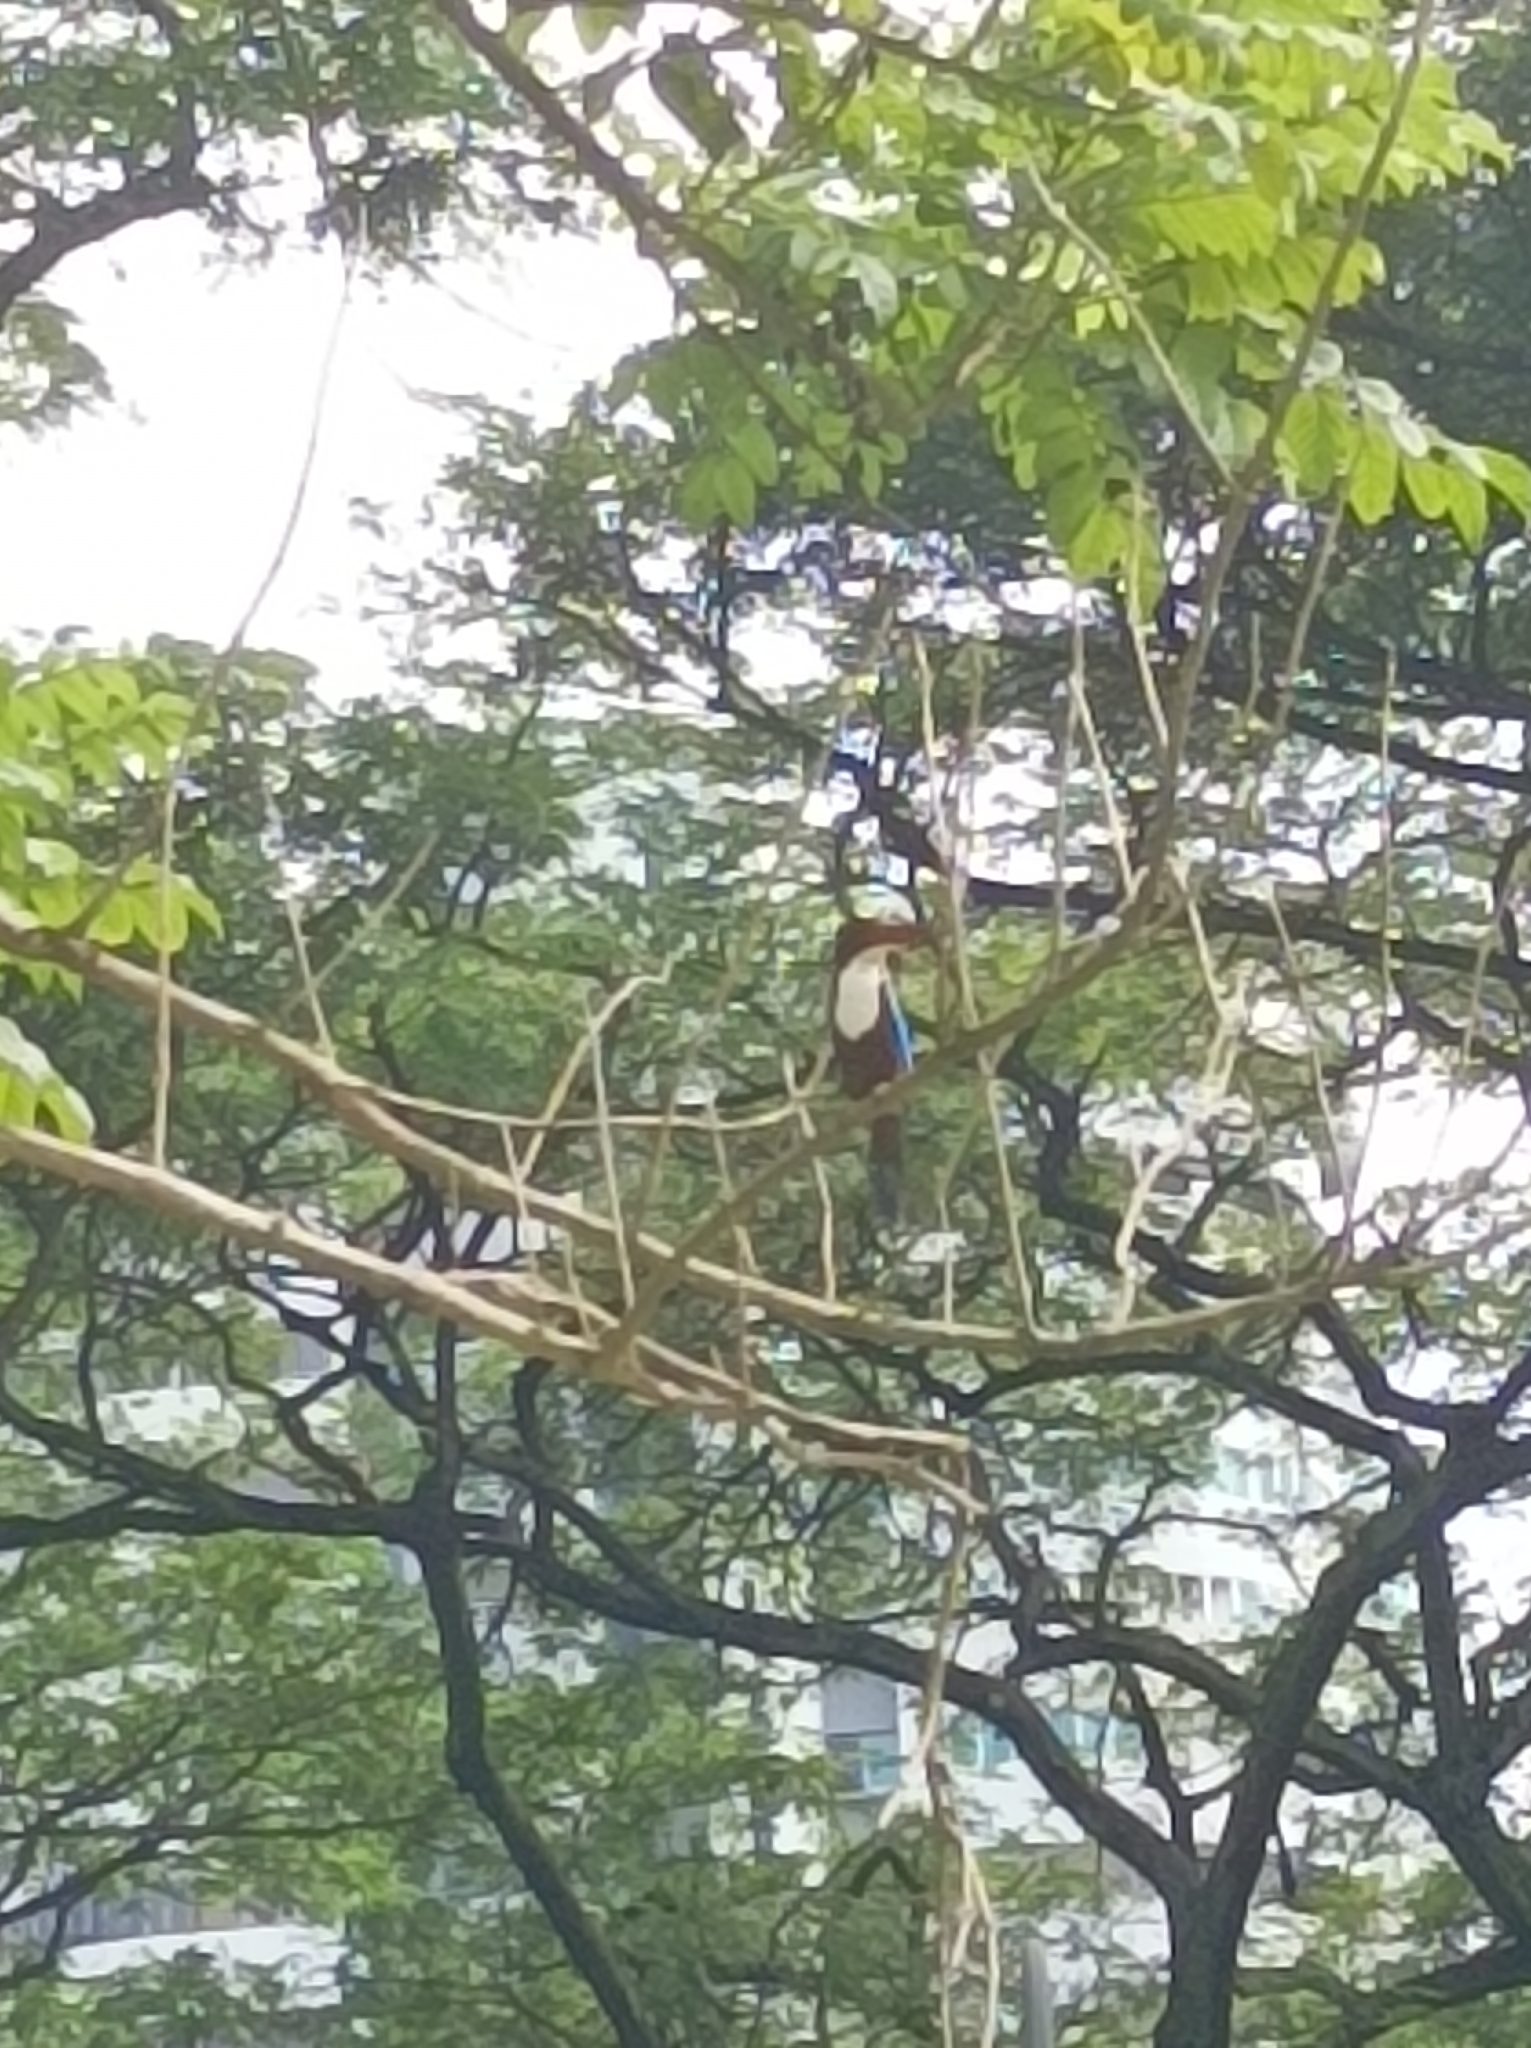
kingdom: Animalia
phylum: Chordata
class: Aves
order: Coraciiformes
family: Alcedinidae
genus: Halcyon
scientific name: Halcyon smyrnensis
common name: White-throated kingfisher
